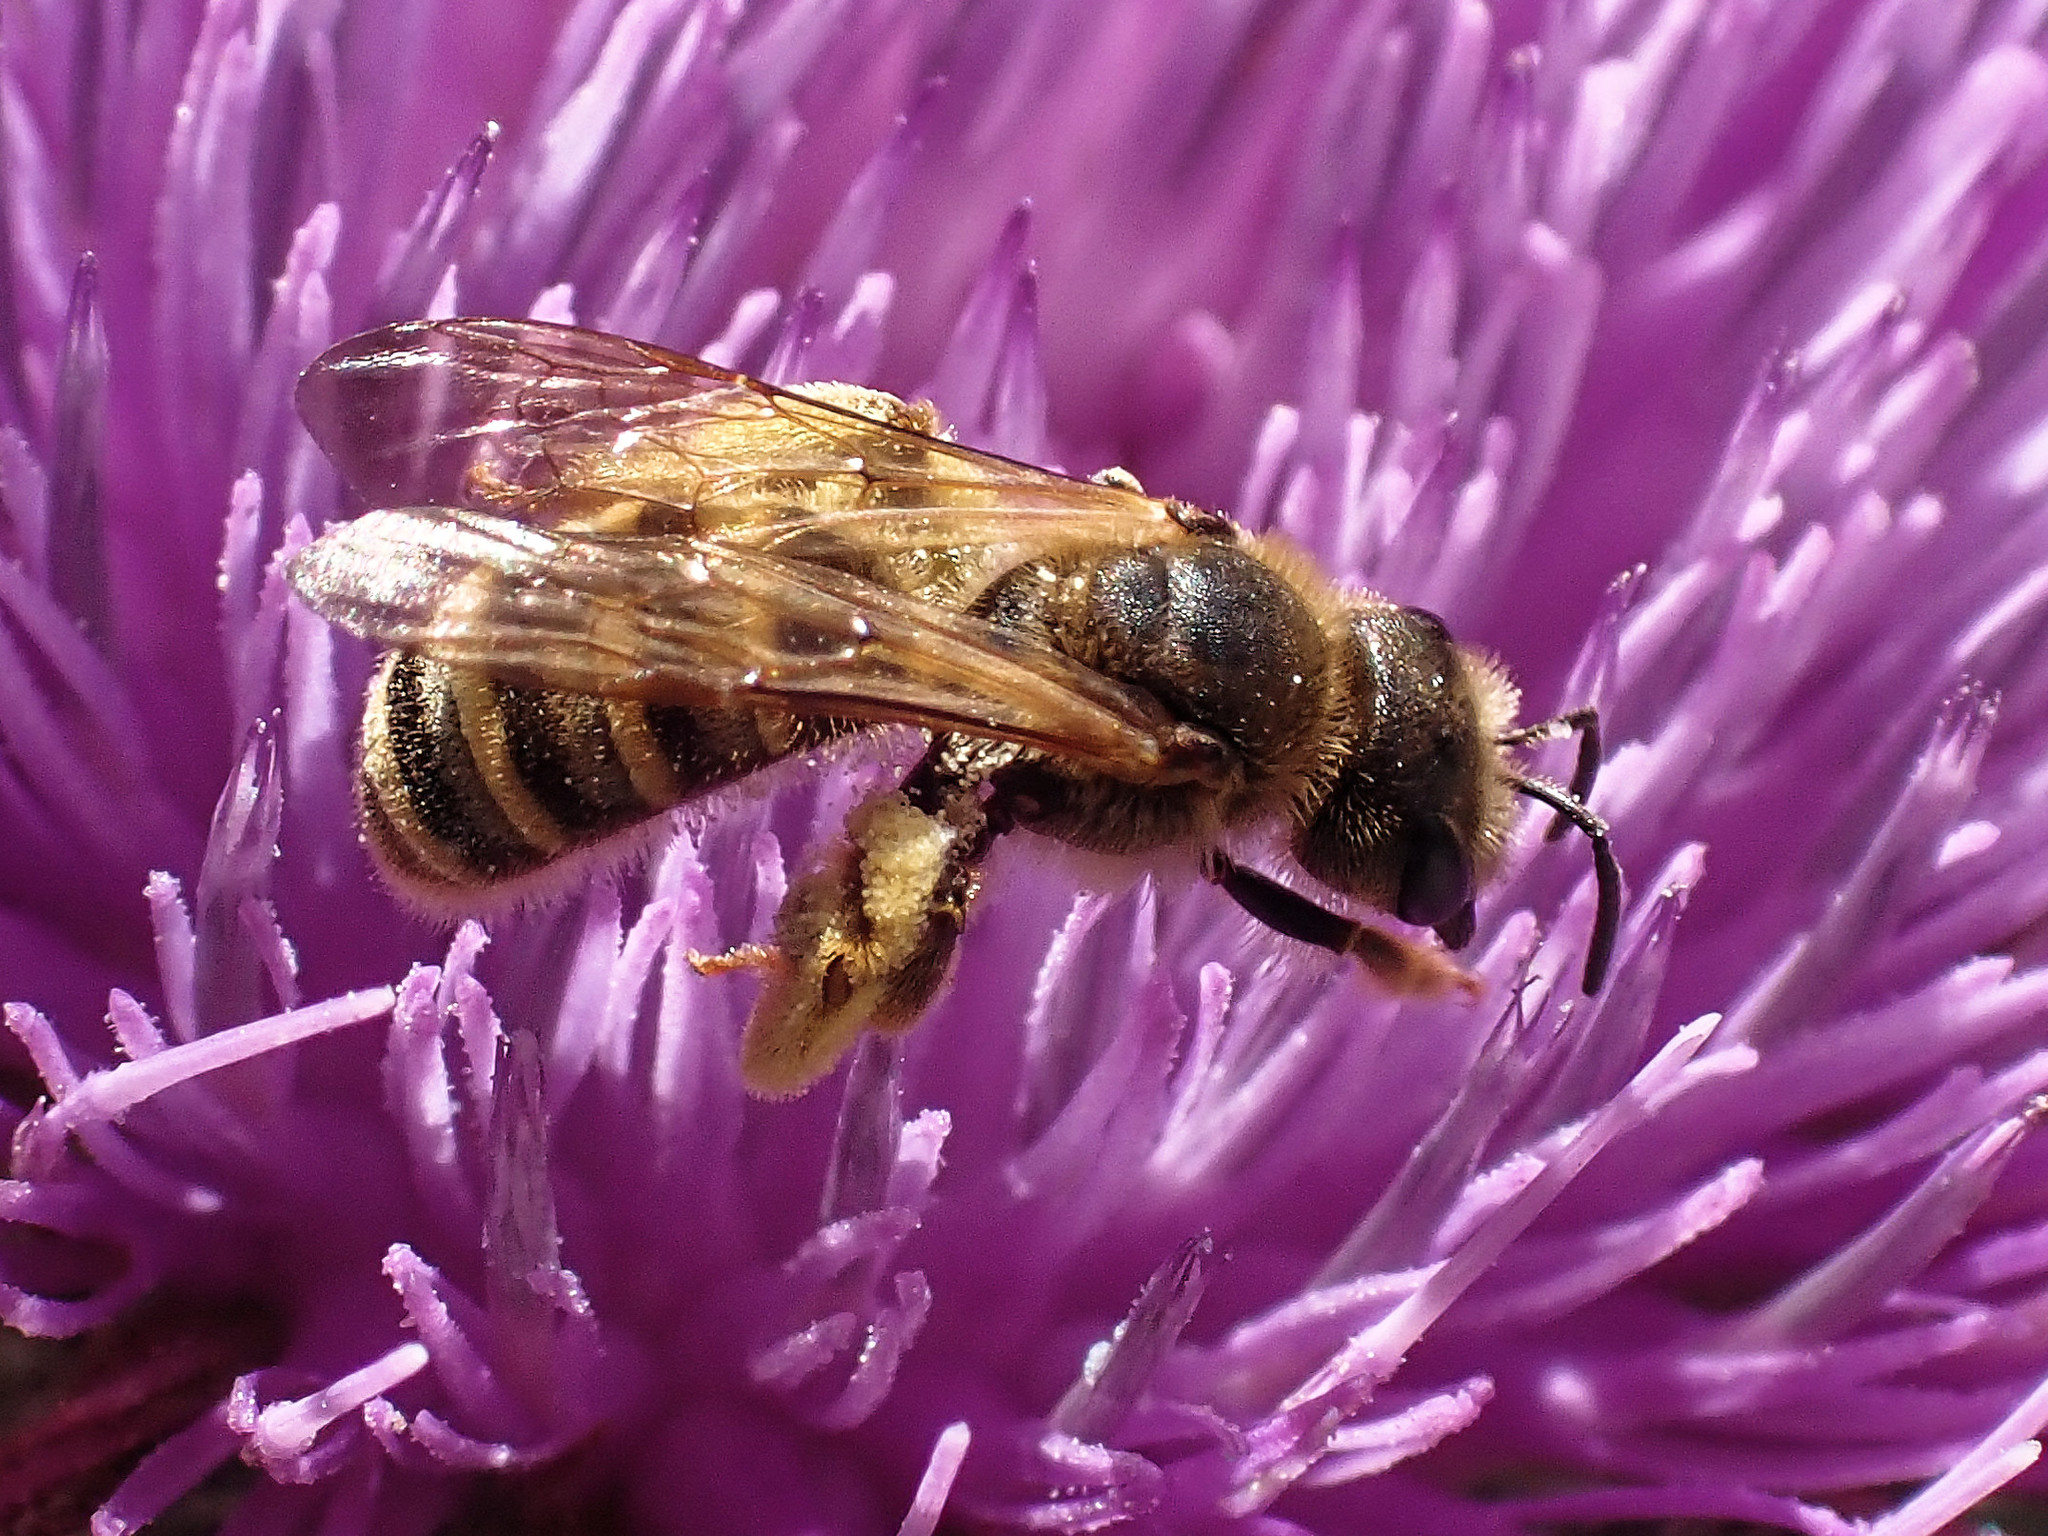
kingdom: Animalia
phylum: Arthropoda
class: Insecta
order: Hymenoptera
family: Halictidae
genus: Halictus
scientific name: Halictus scabiosae
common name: Great banded furrow bee
